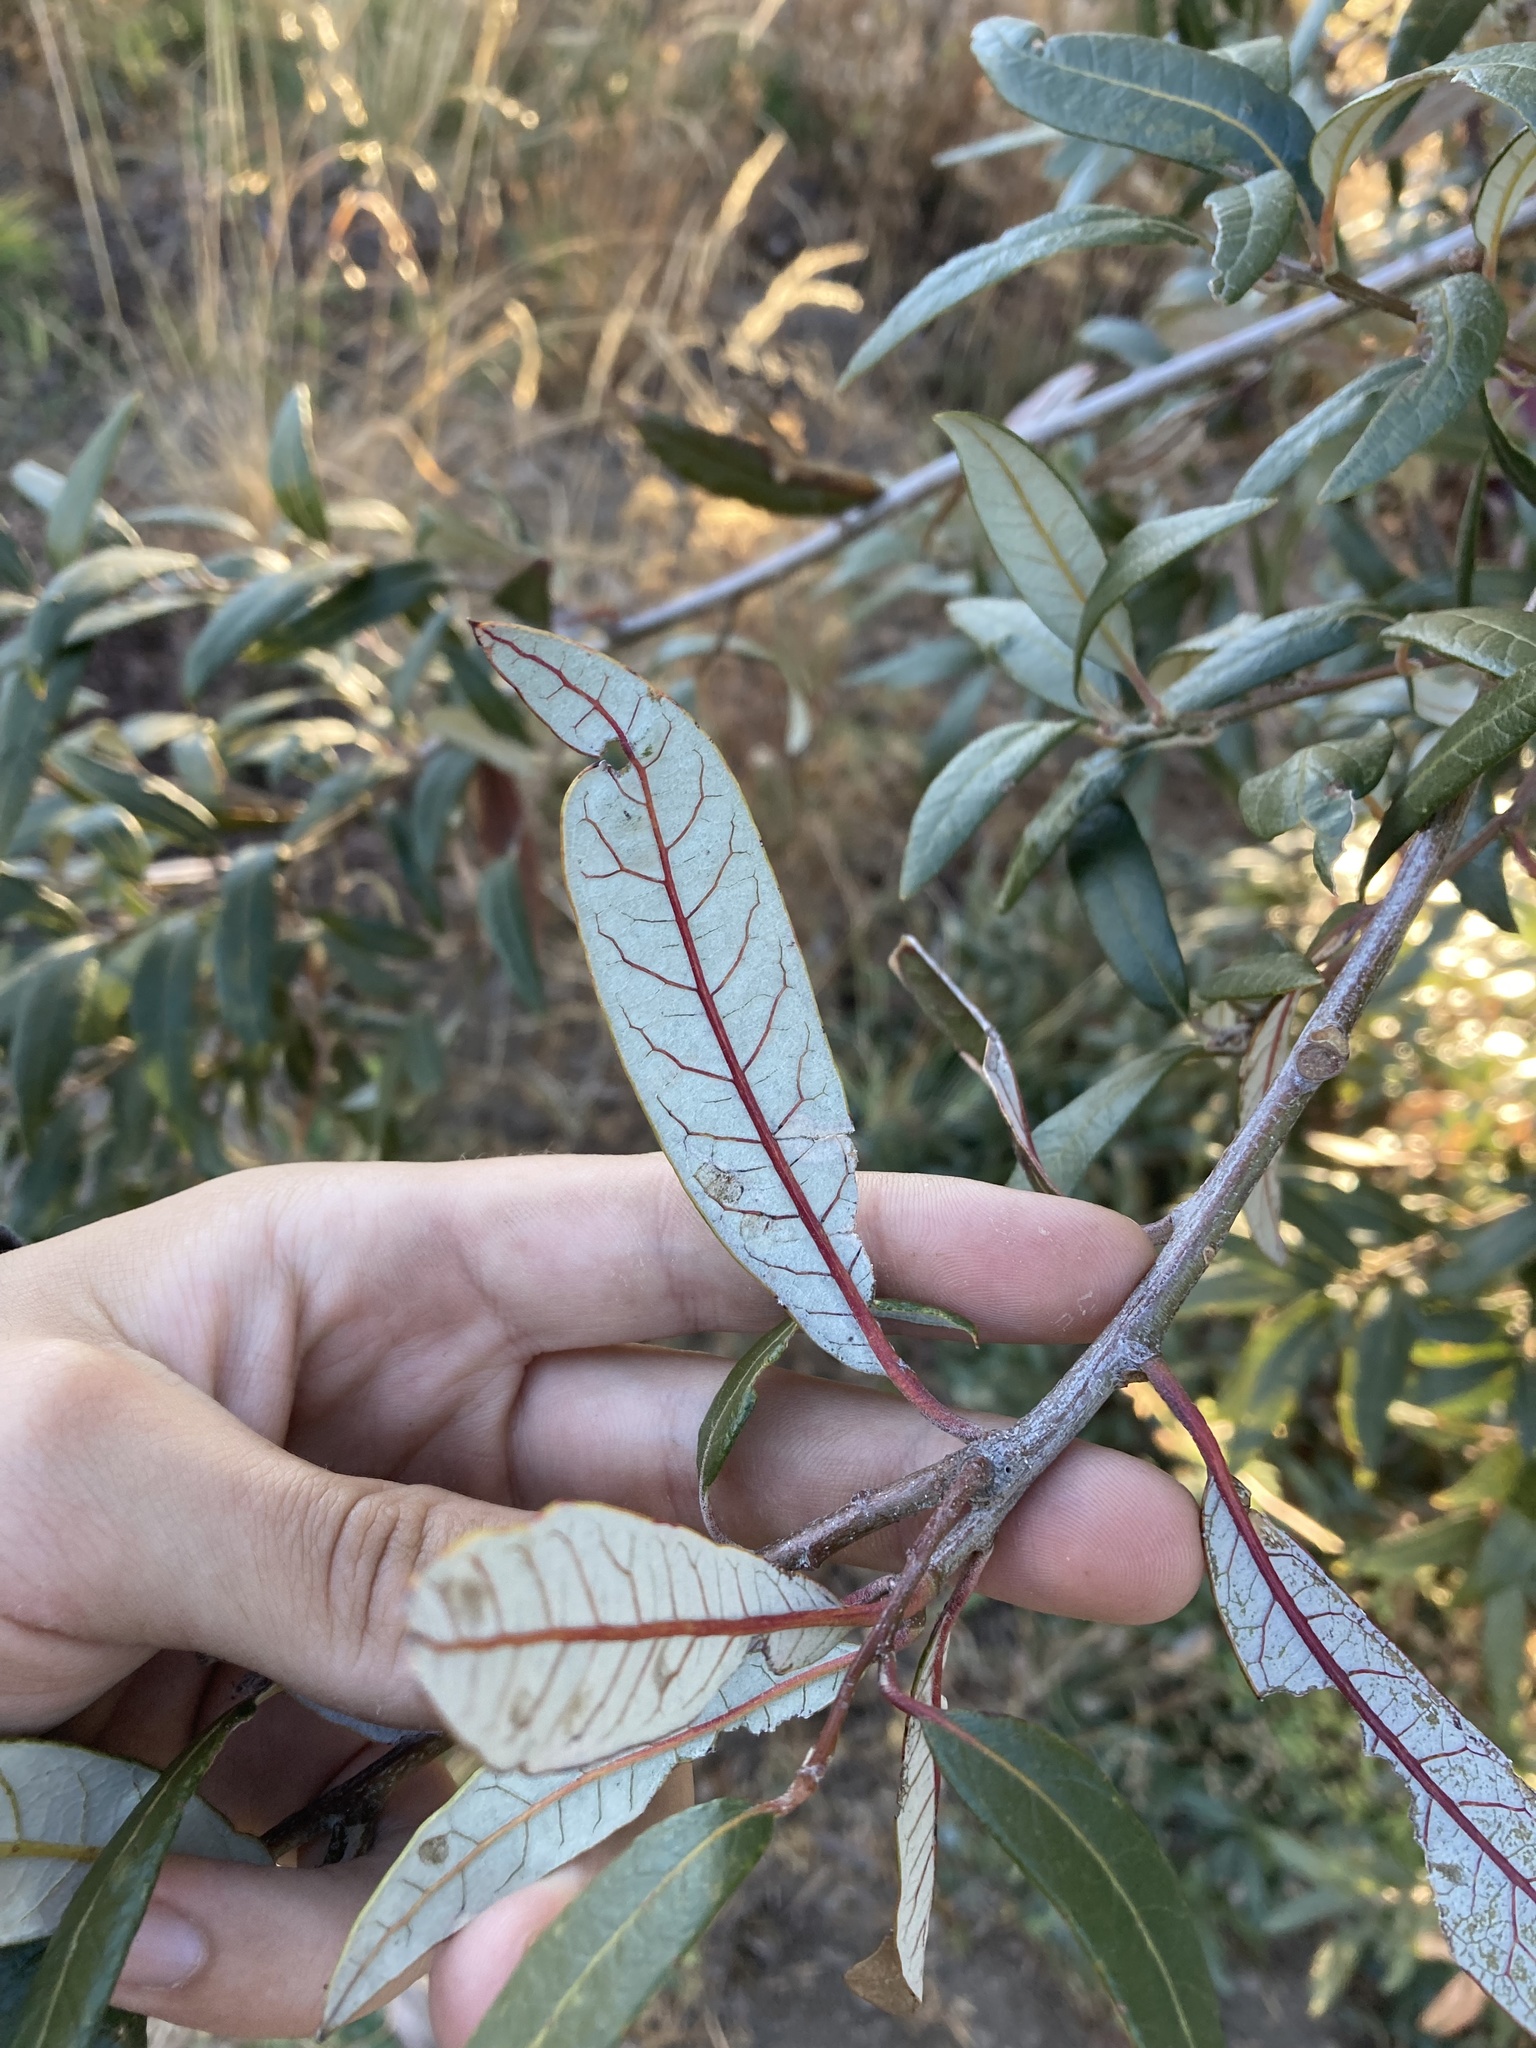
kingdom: Plantae
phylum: Tracheophyta
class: Magnoliopsida
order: Fagales
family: Fagaceae
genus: Quercus
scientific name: Quercus hypoleucoides
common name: Silverleaf oak
